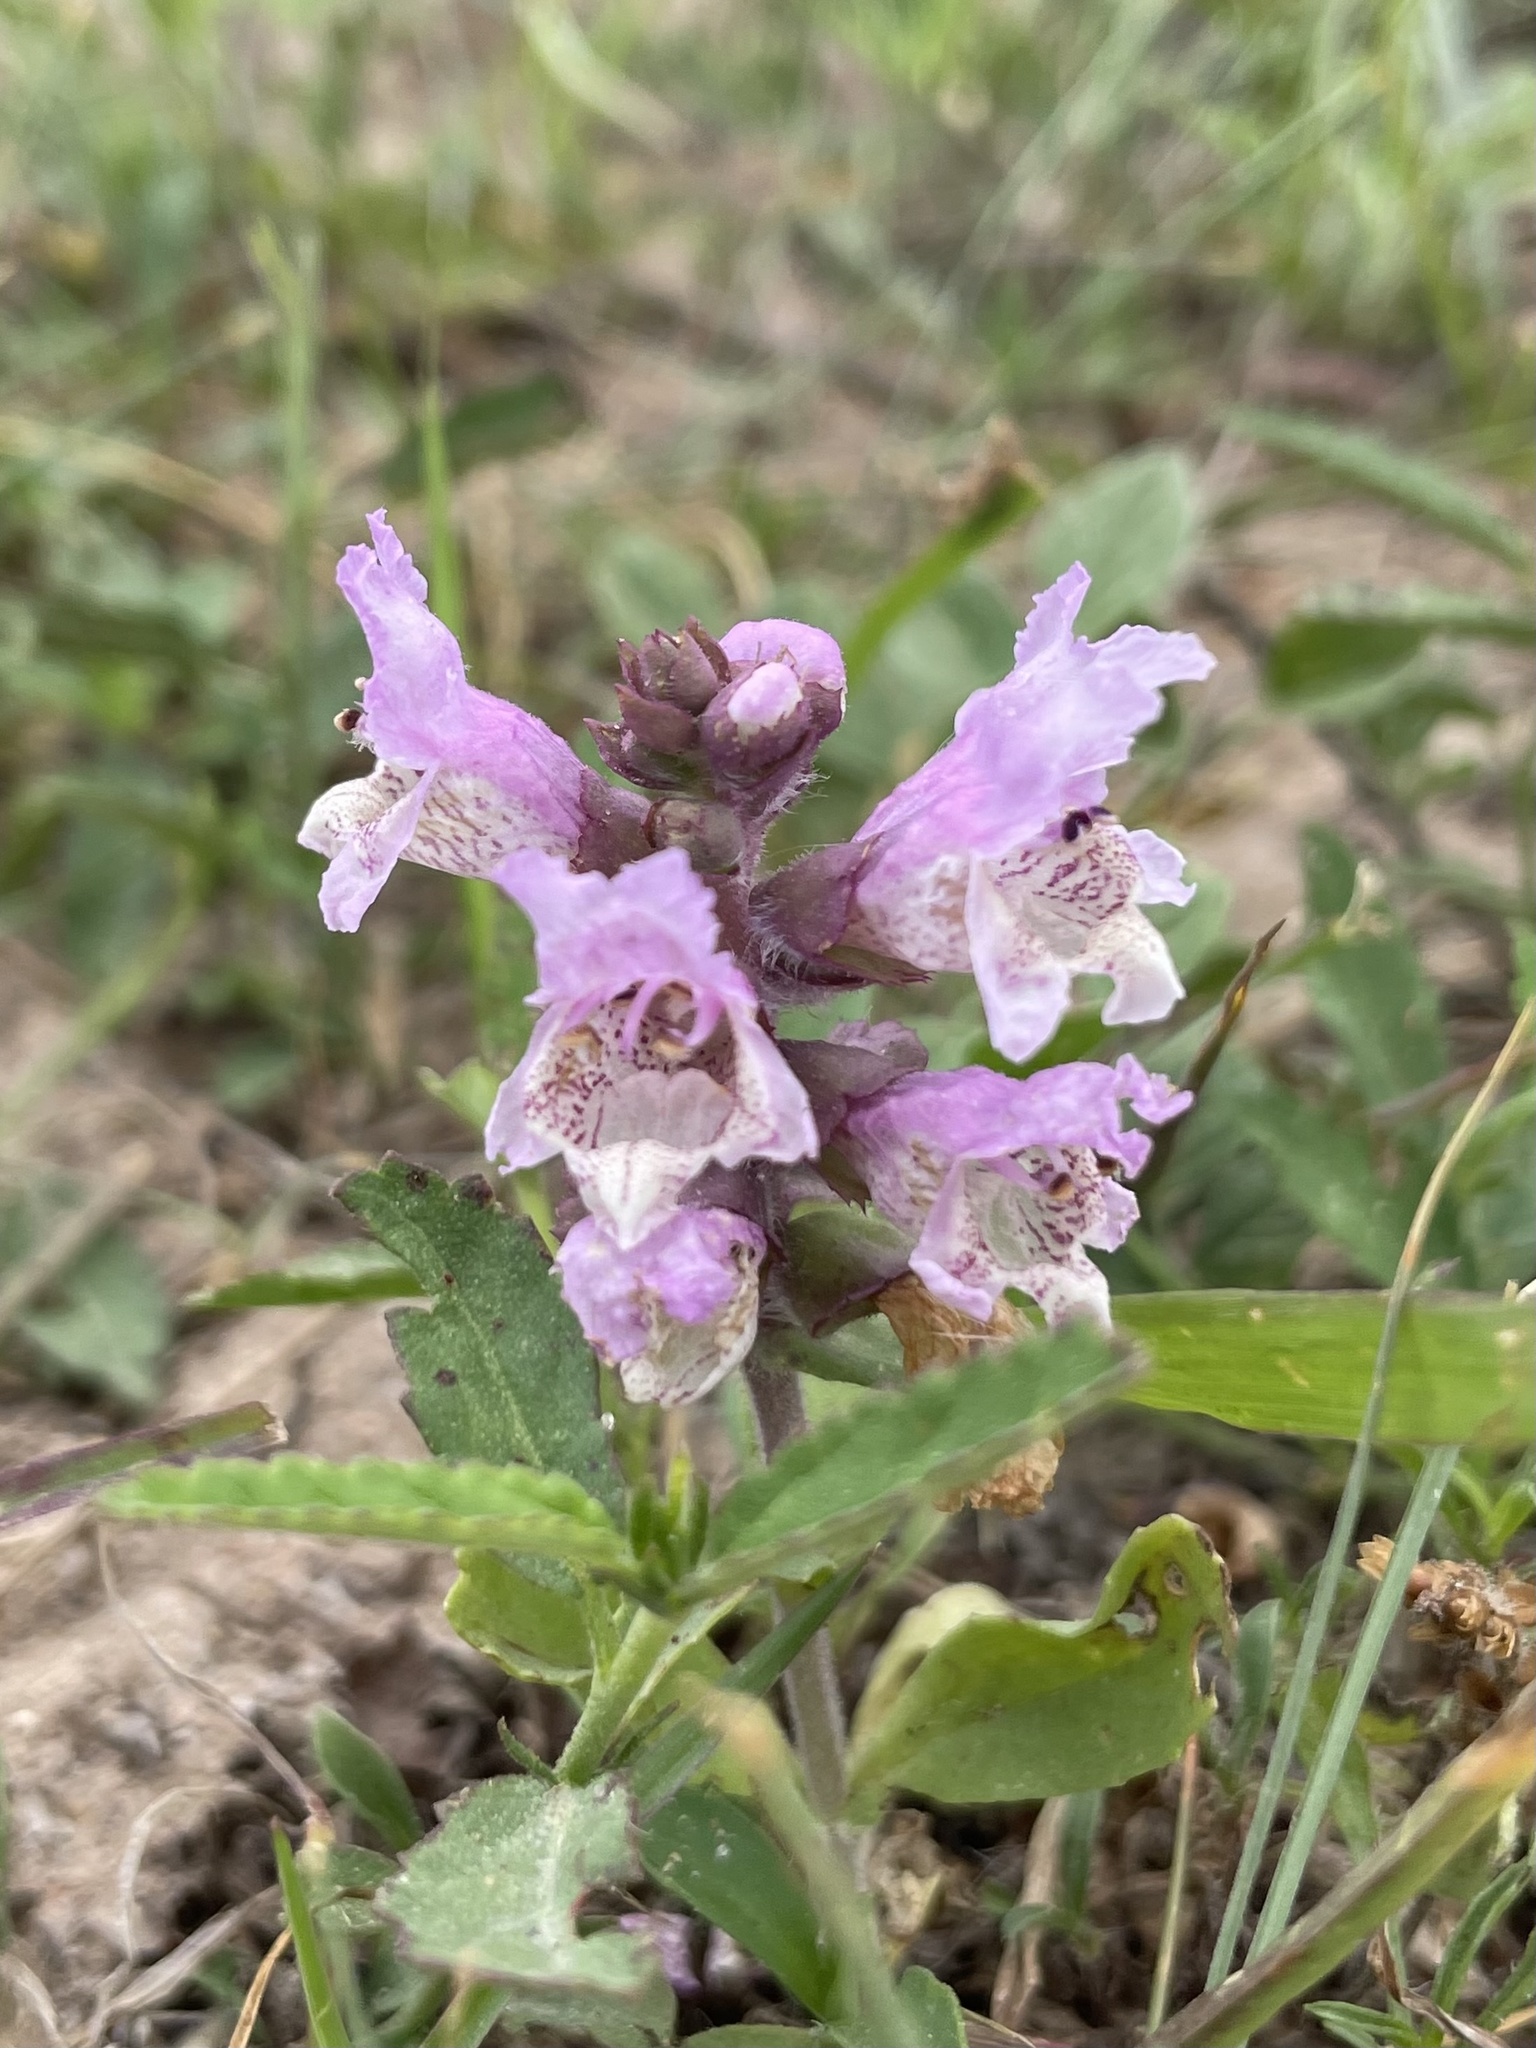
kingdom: Plantae
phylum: Tracheophyta
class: Magnoliopsida
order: Lamiales
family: Lamiaceae
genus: Brazoria
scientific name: Brazoria truncata
